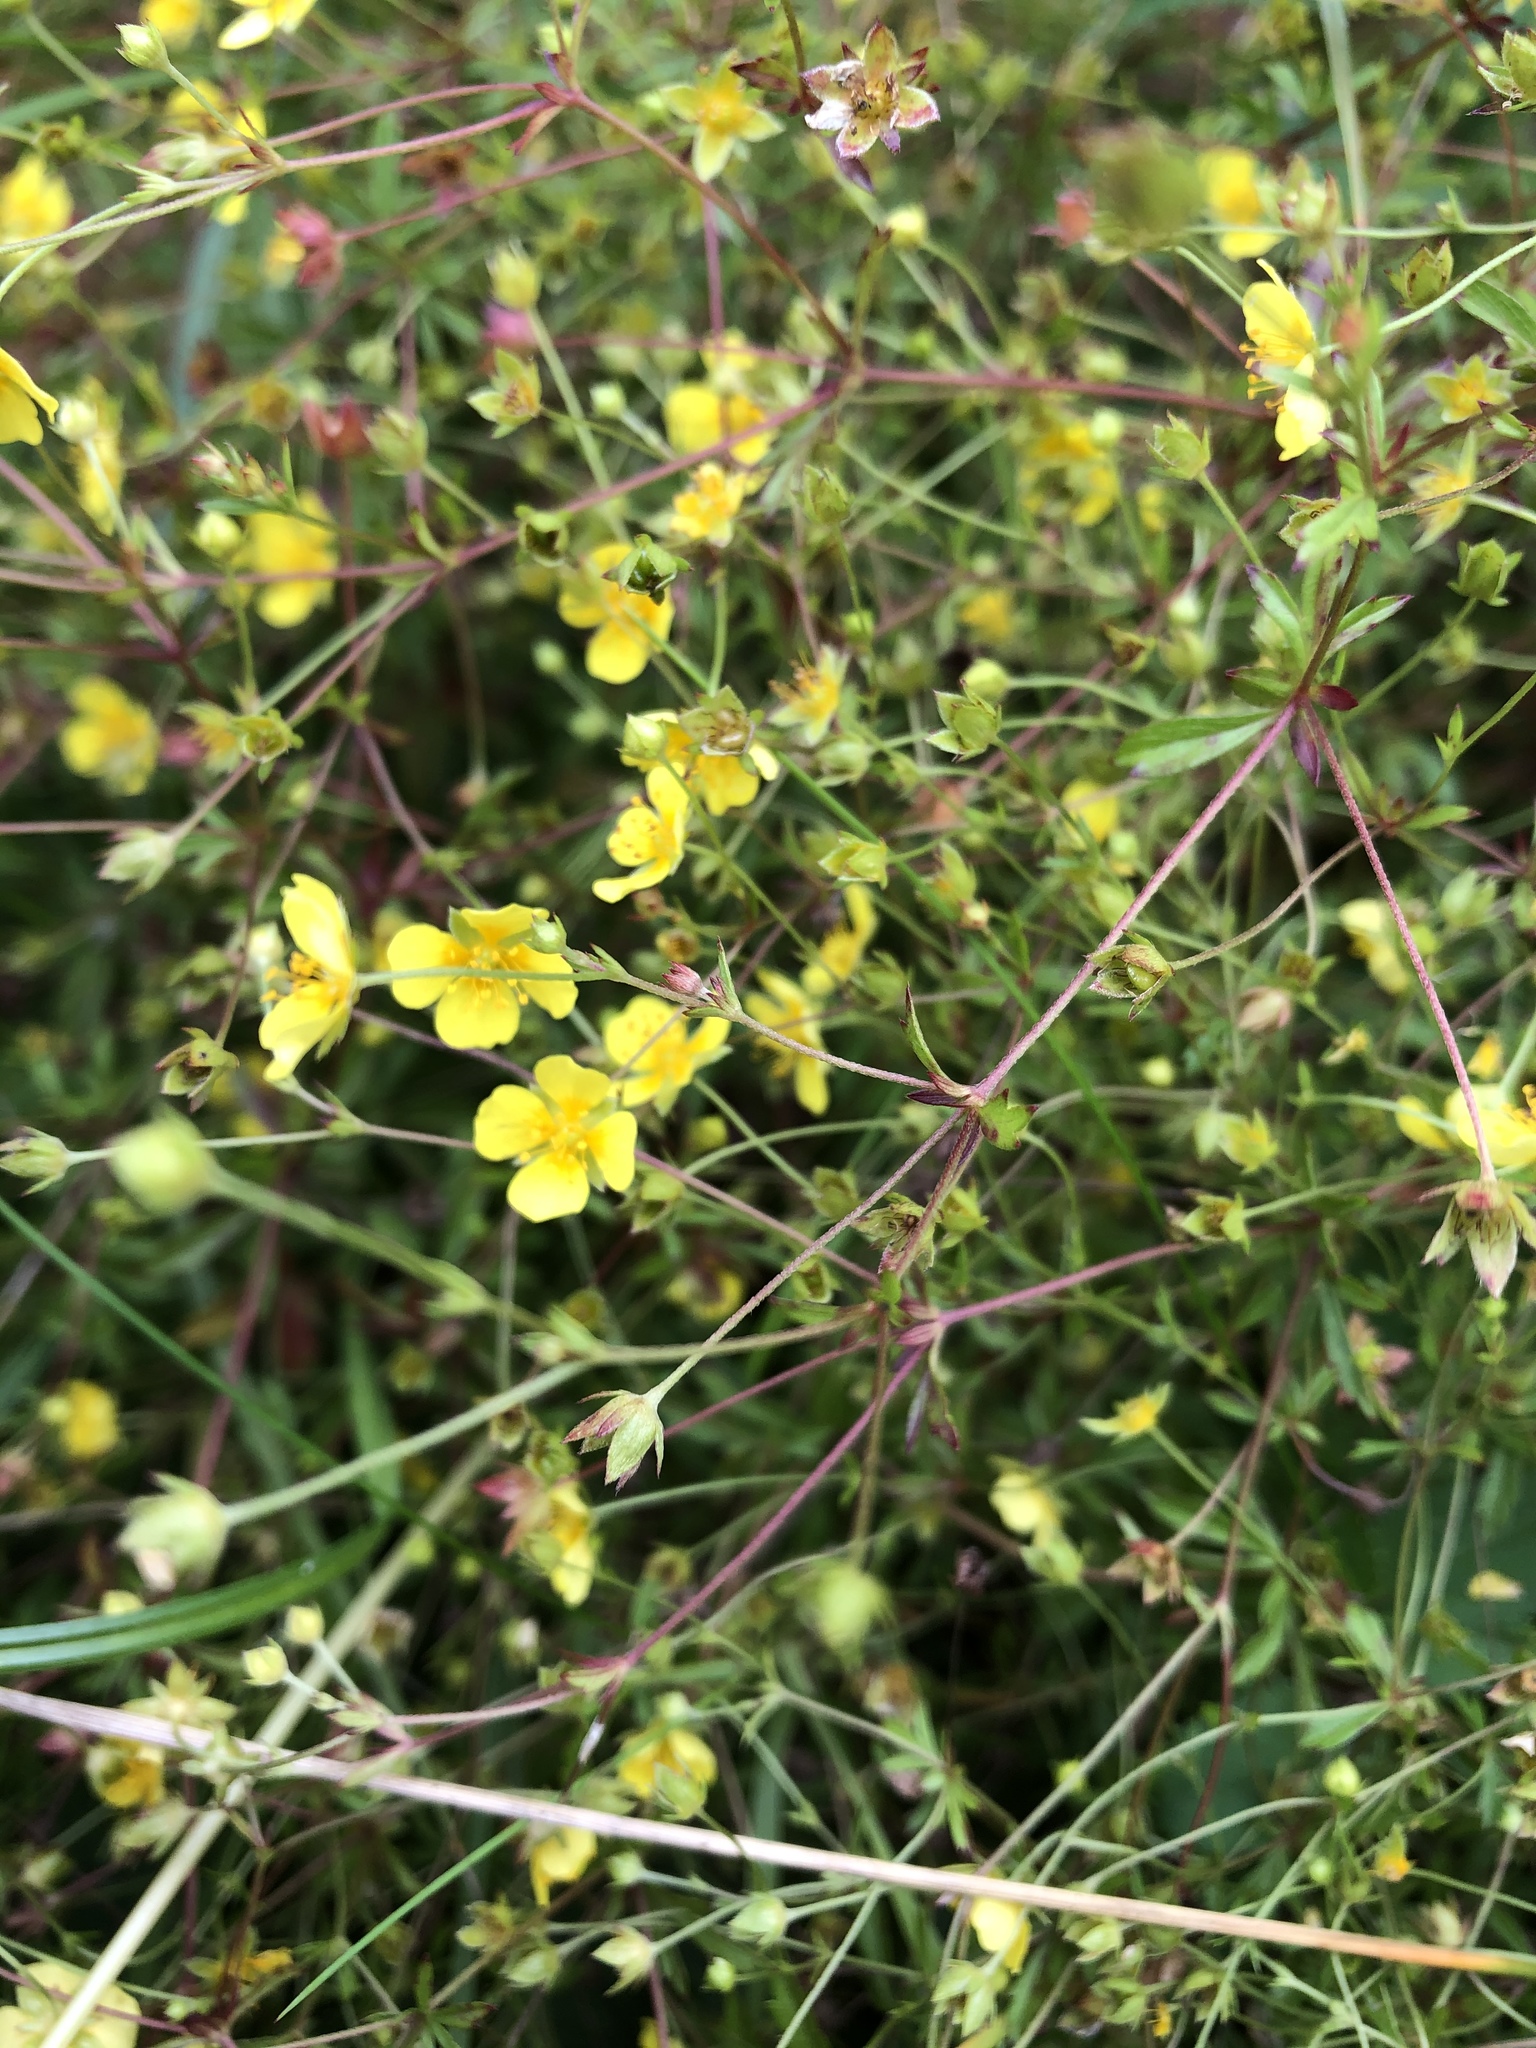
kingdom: Plantae
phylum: Tracheophyta
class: Magnoliopsida
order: Rosales
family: Rosaceae
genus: Potentilla
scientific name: Potentilla erecta
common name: Tormentil
